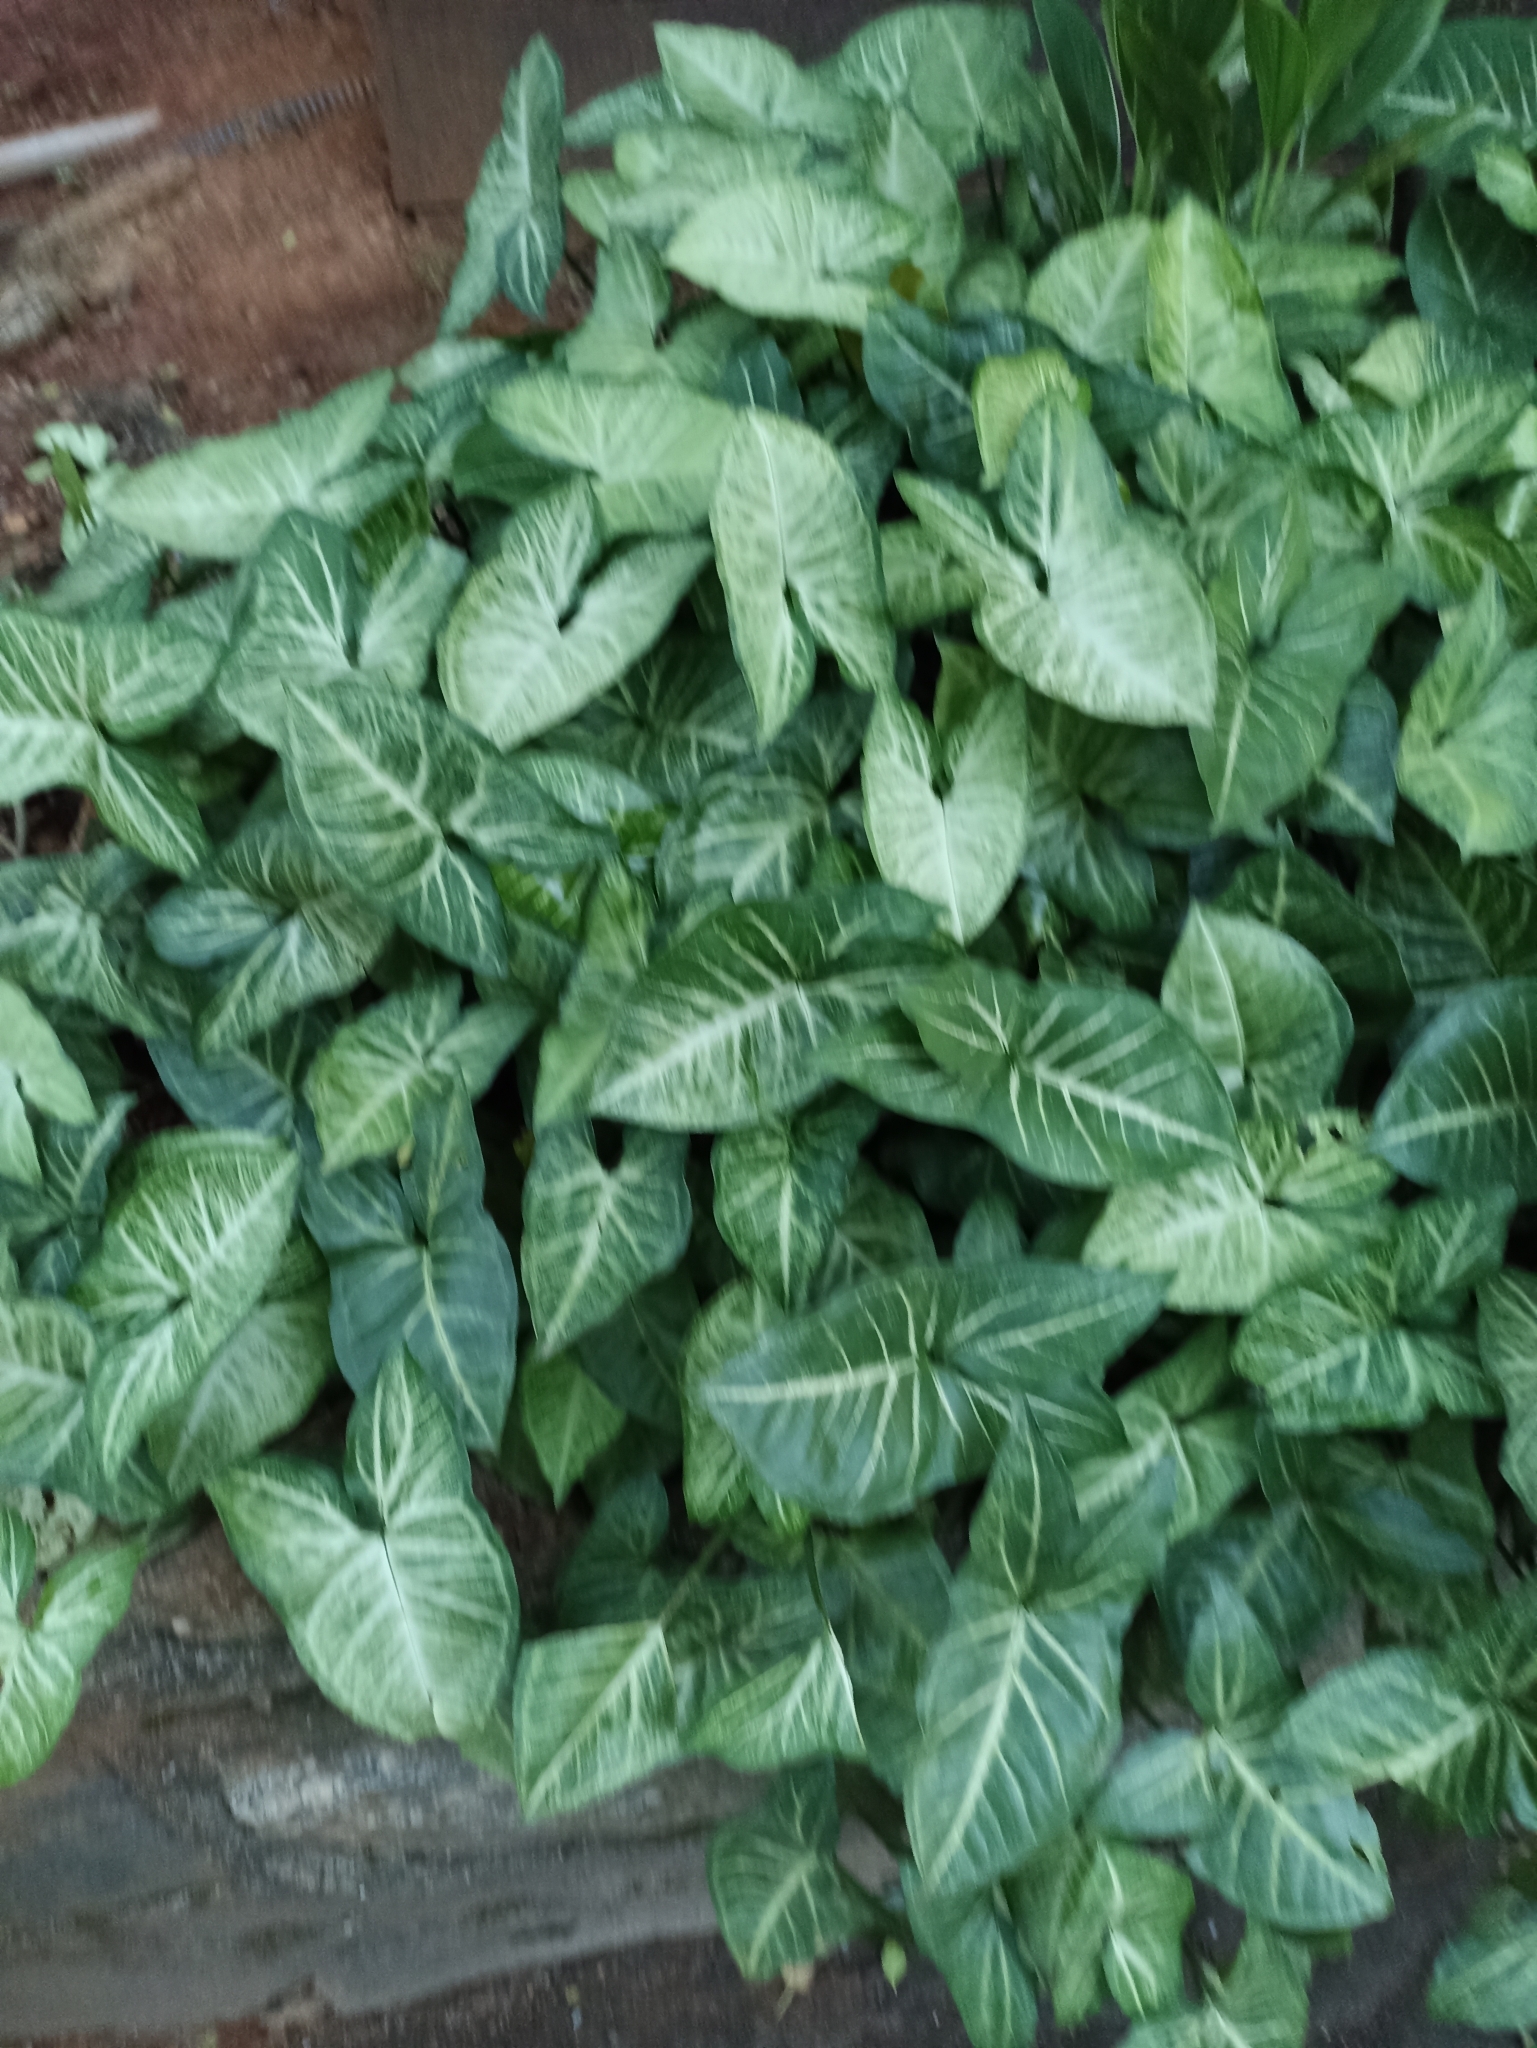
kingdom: Plantae
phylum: Tracheophyta
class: Liliopsida
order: Alismatales
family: Araceae
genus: Syngonium
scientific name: Syngonium podophyllum
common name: American evergreen
